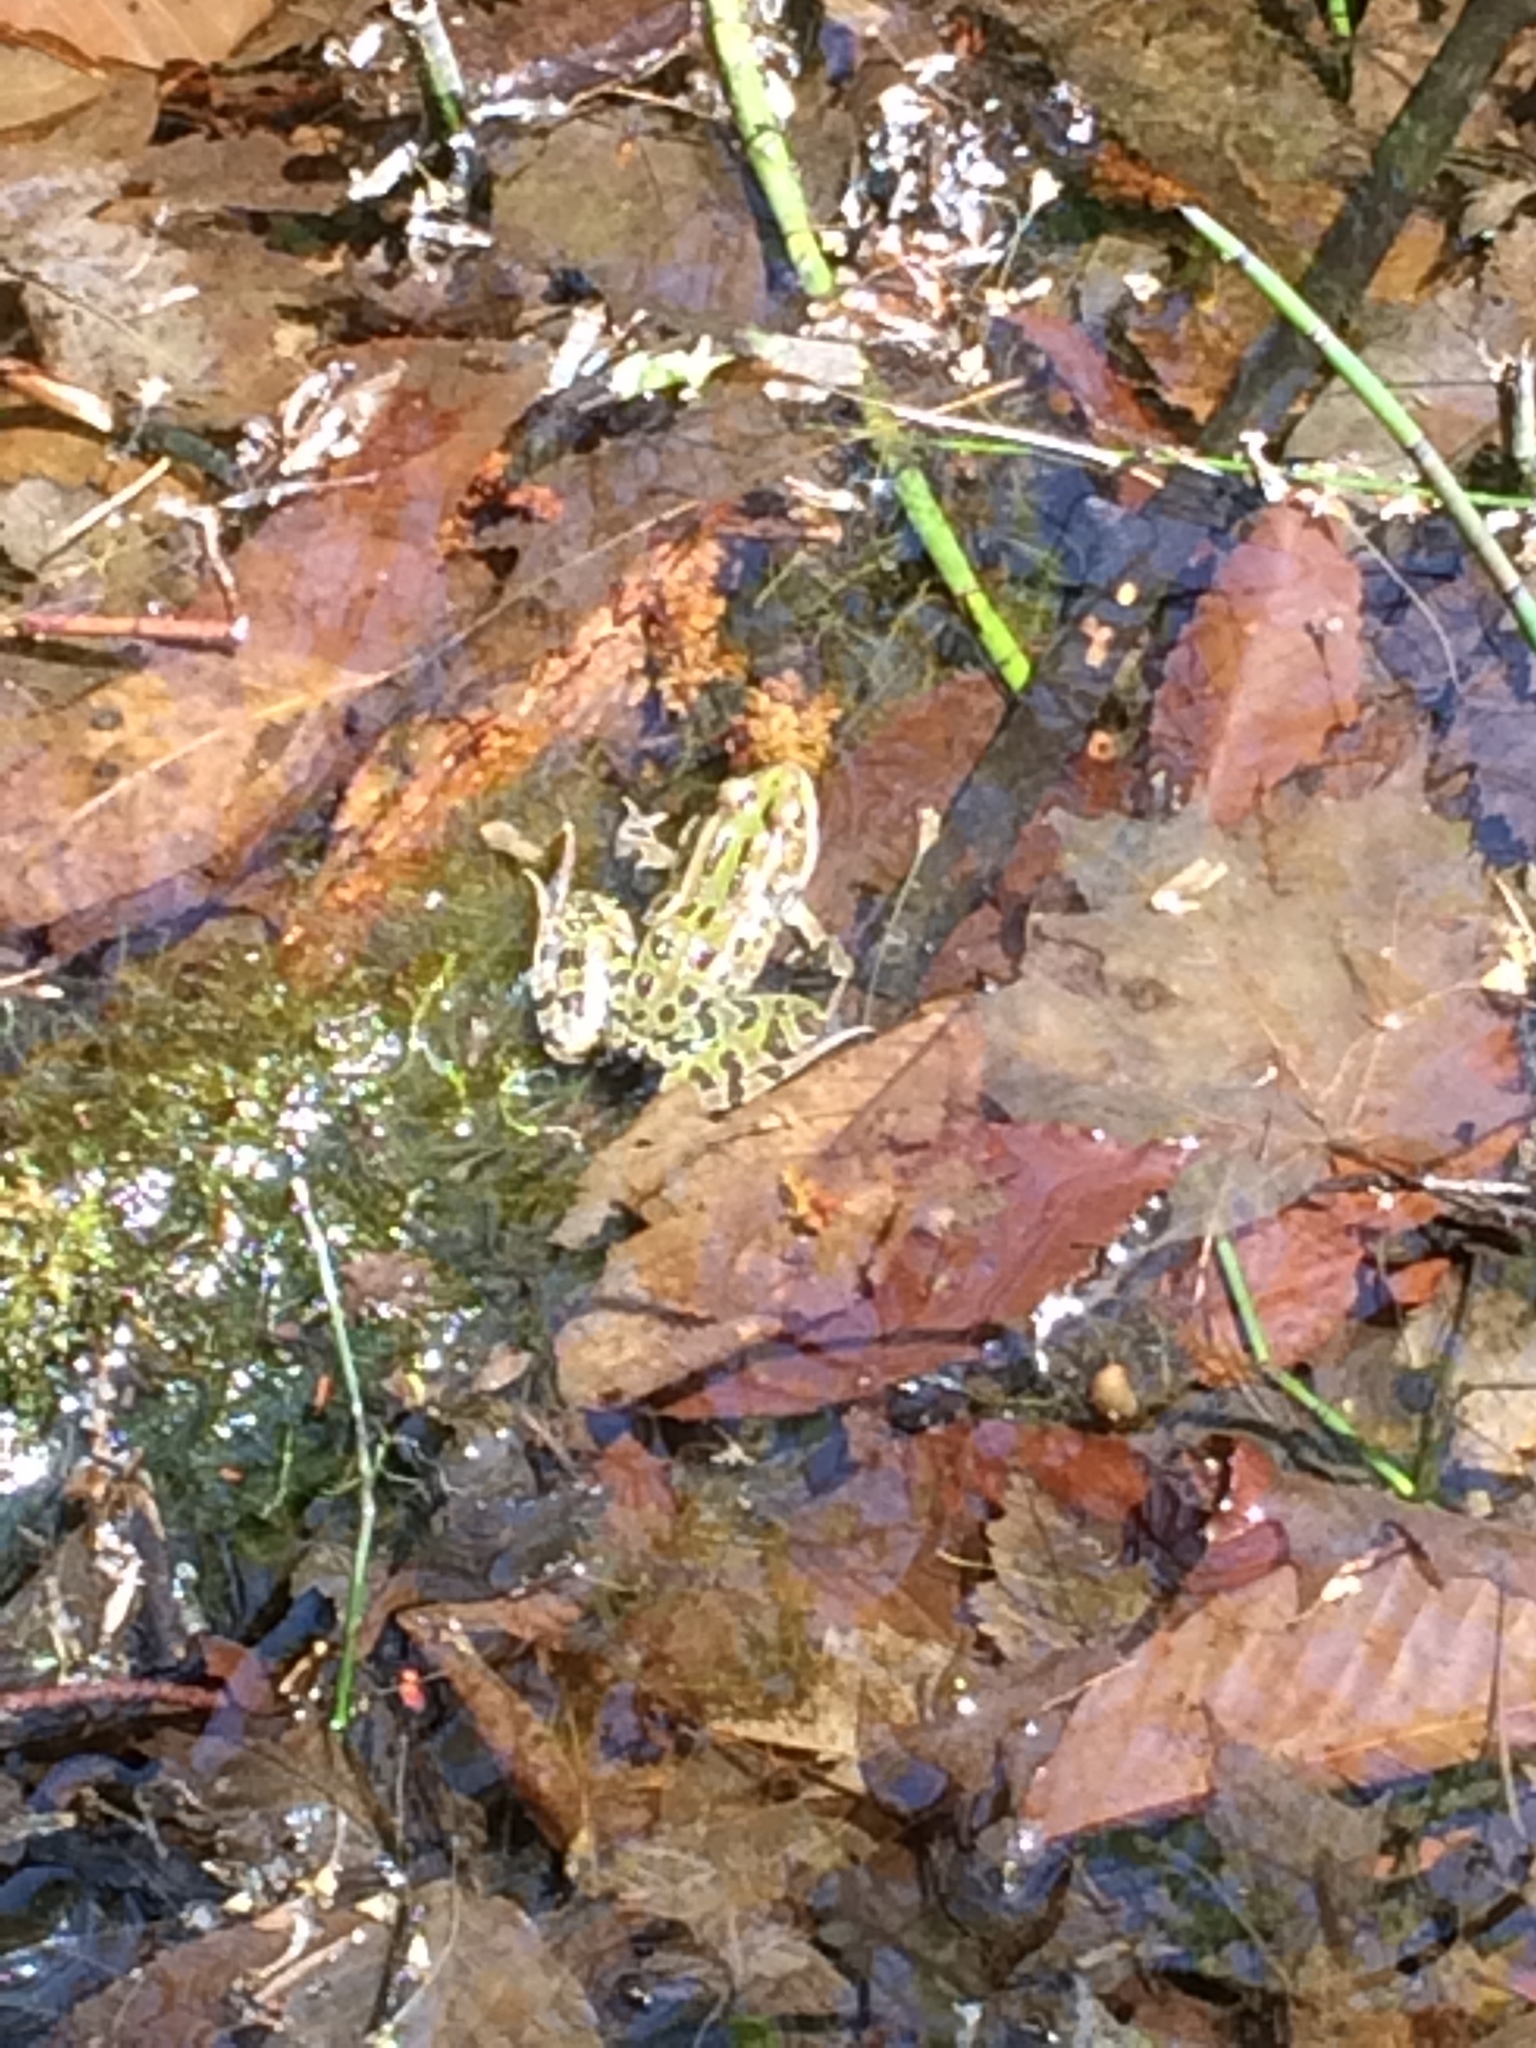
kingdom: Animalia
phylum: Chordata
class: Amphibia
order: Anura
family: Ranidae
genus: Lithobates
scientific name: Lithobates pipiens
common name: Northern leopard frog
